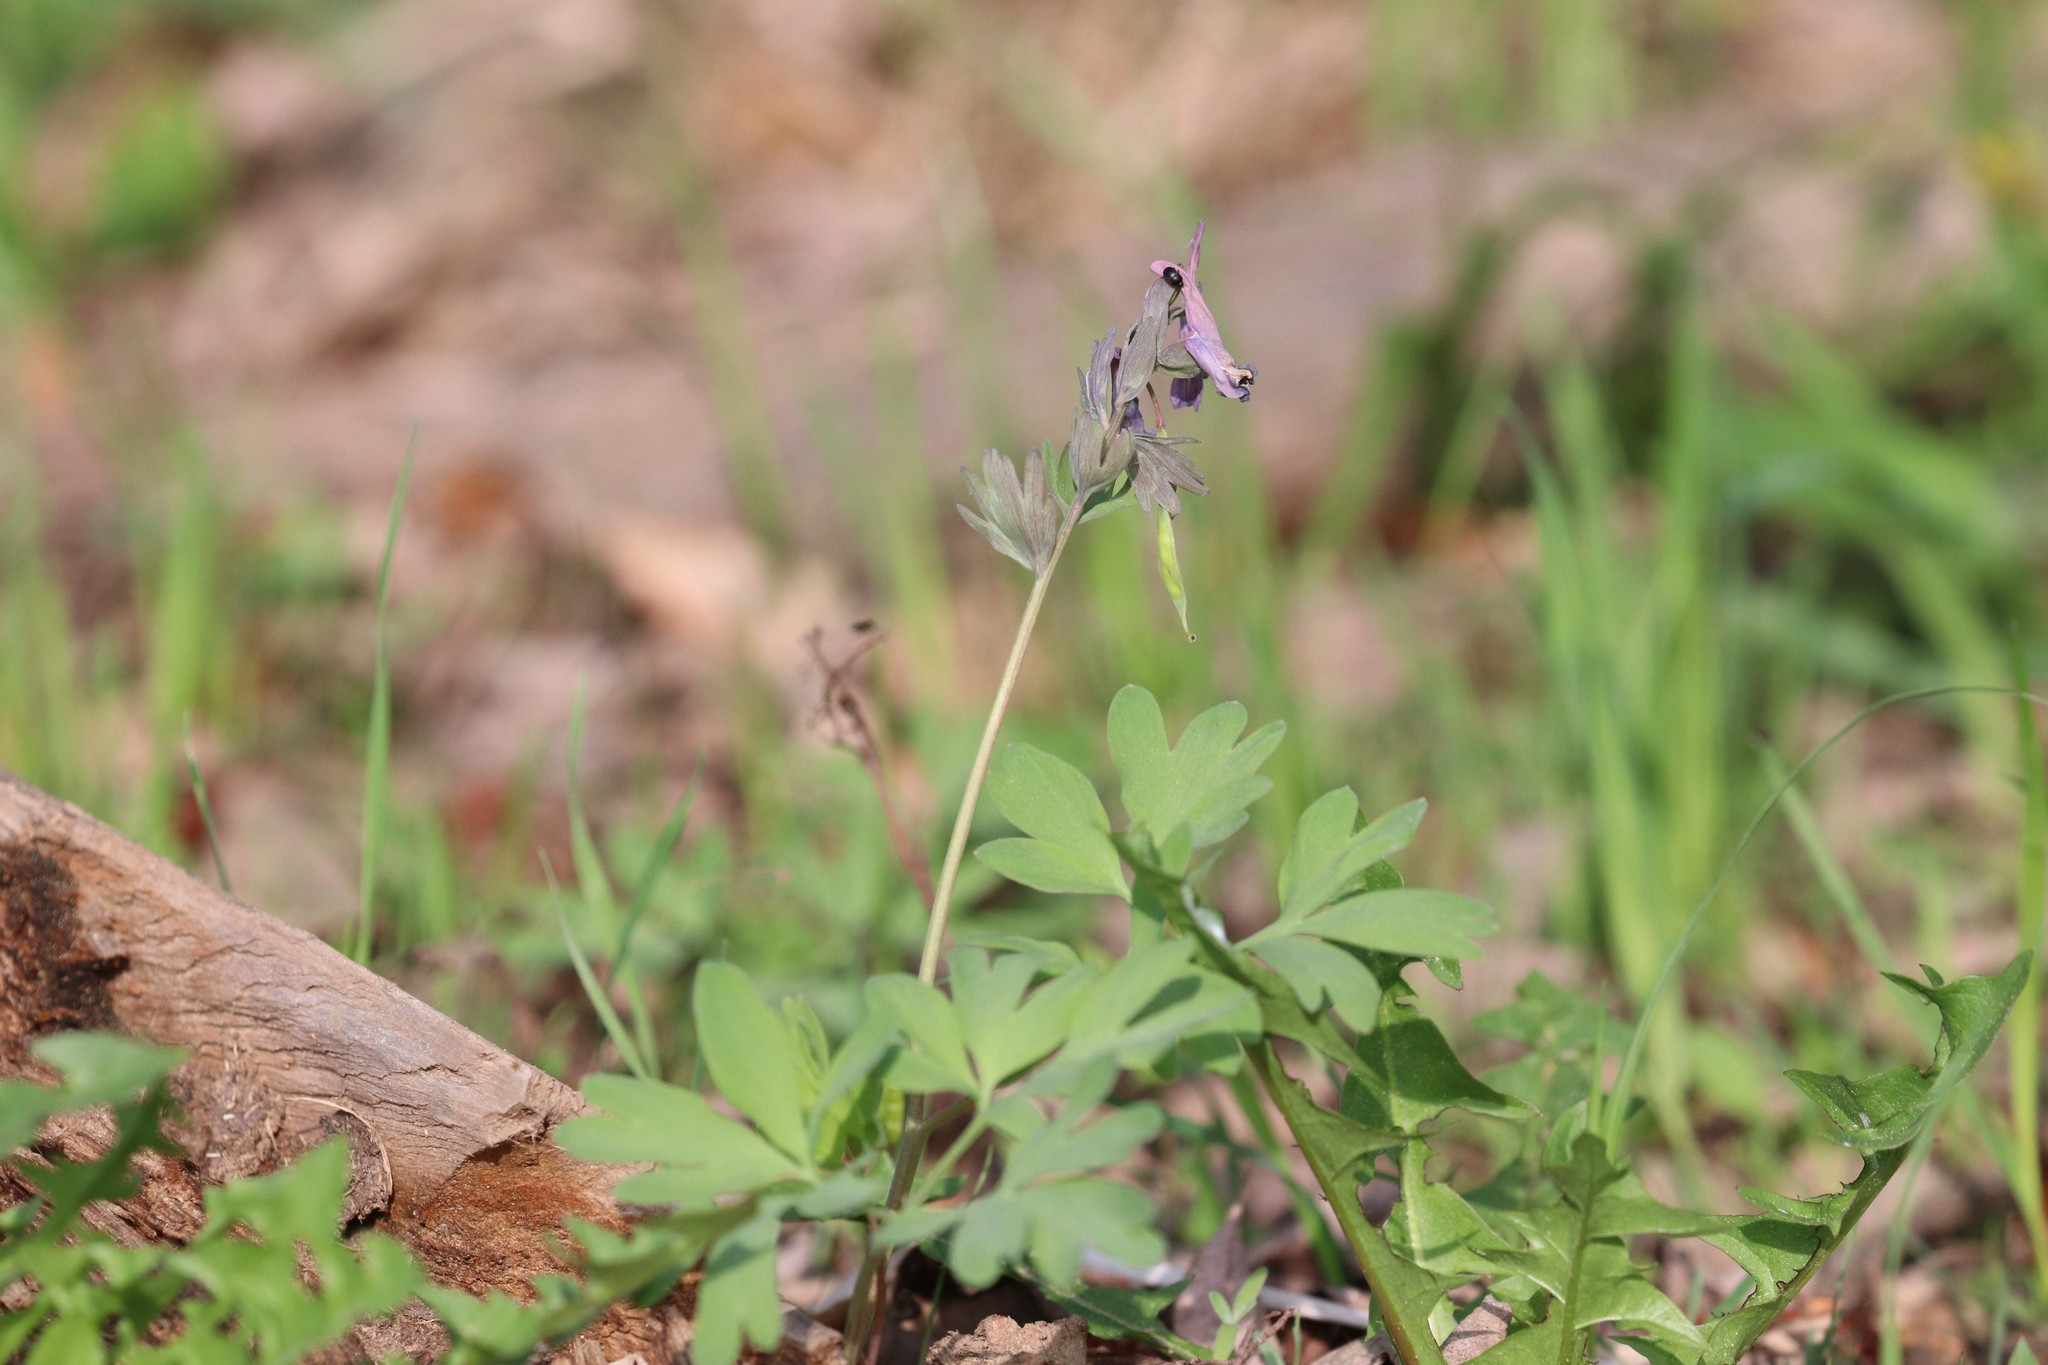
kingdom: Plantae
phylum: Tracheophyta
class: Magnoliopsida
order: Ranunculales
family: Papaveraceae
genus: Corydalis
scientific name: Corydalis solida
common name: Bird-in-a-bush
